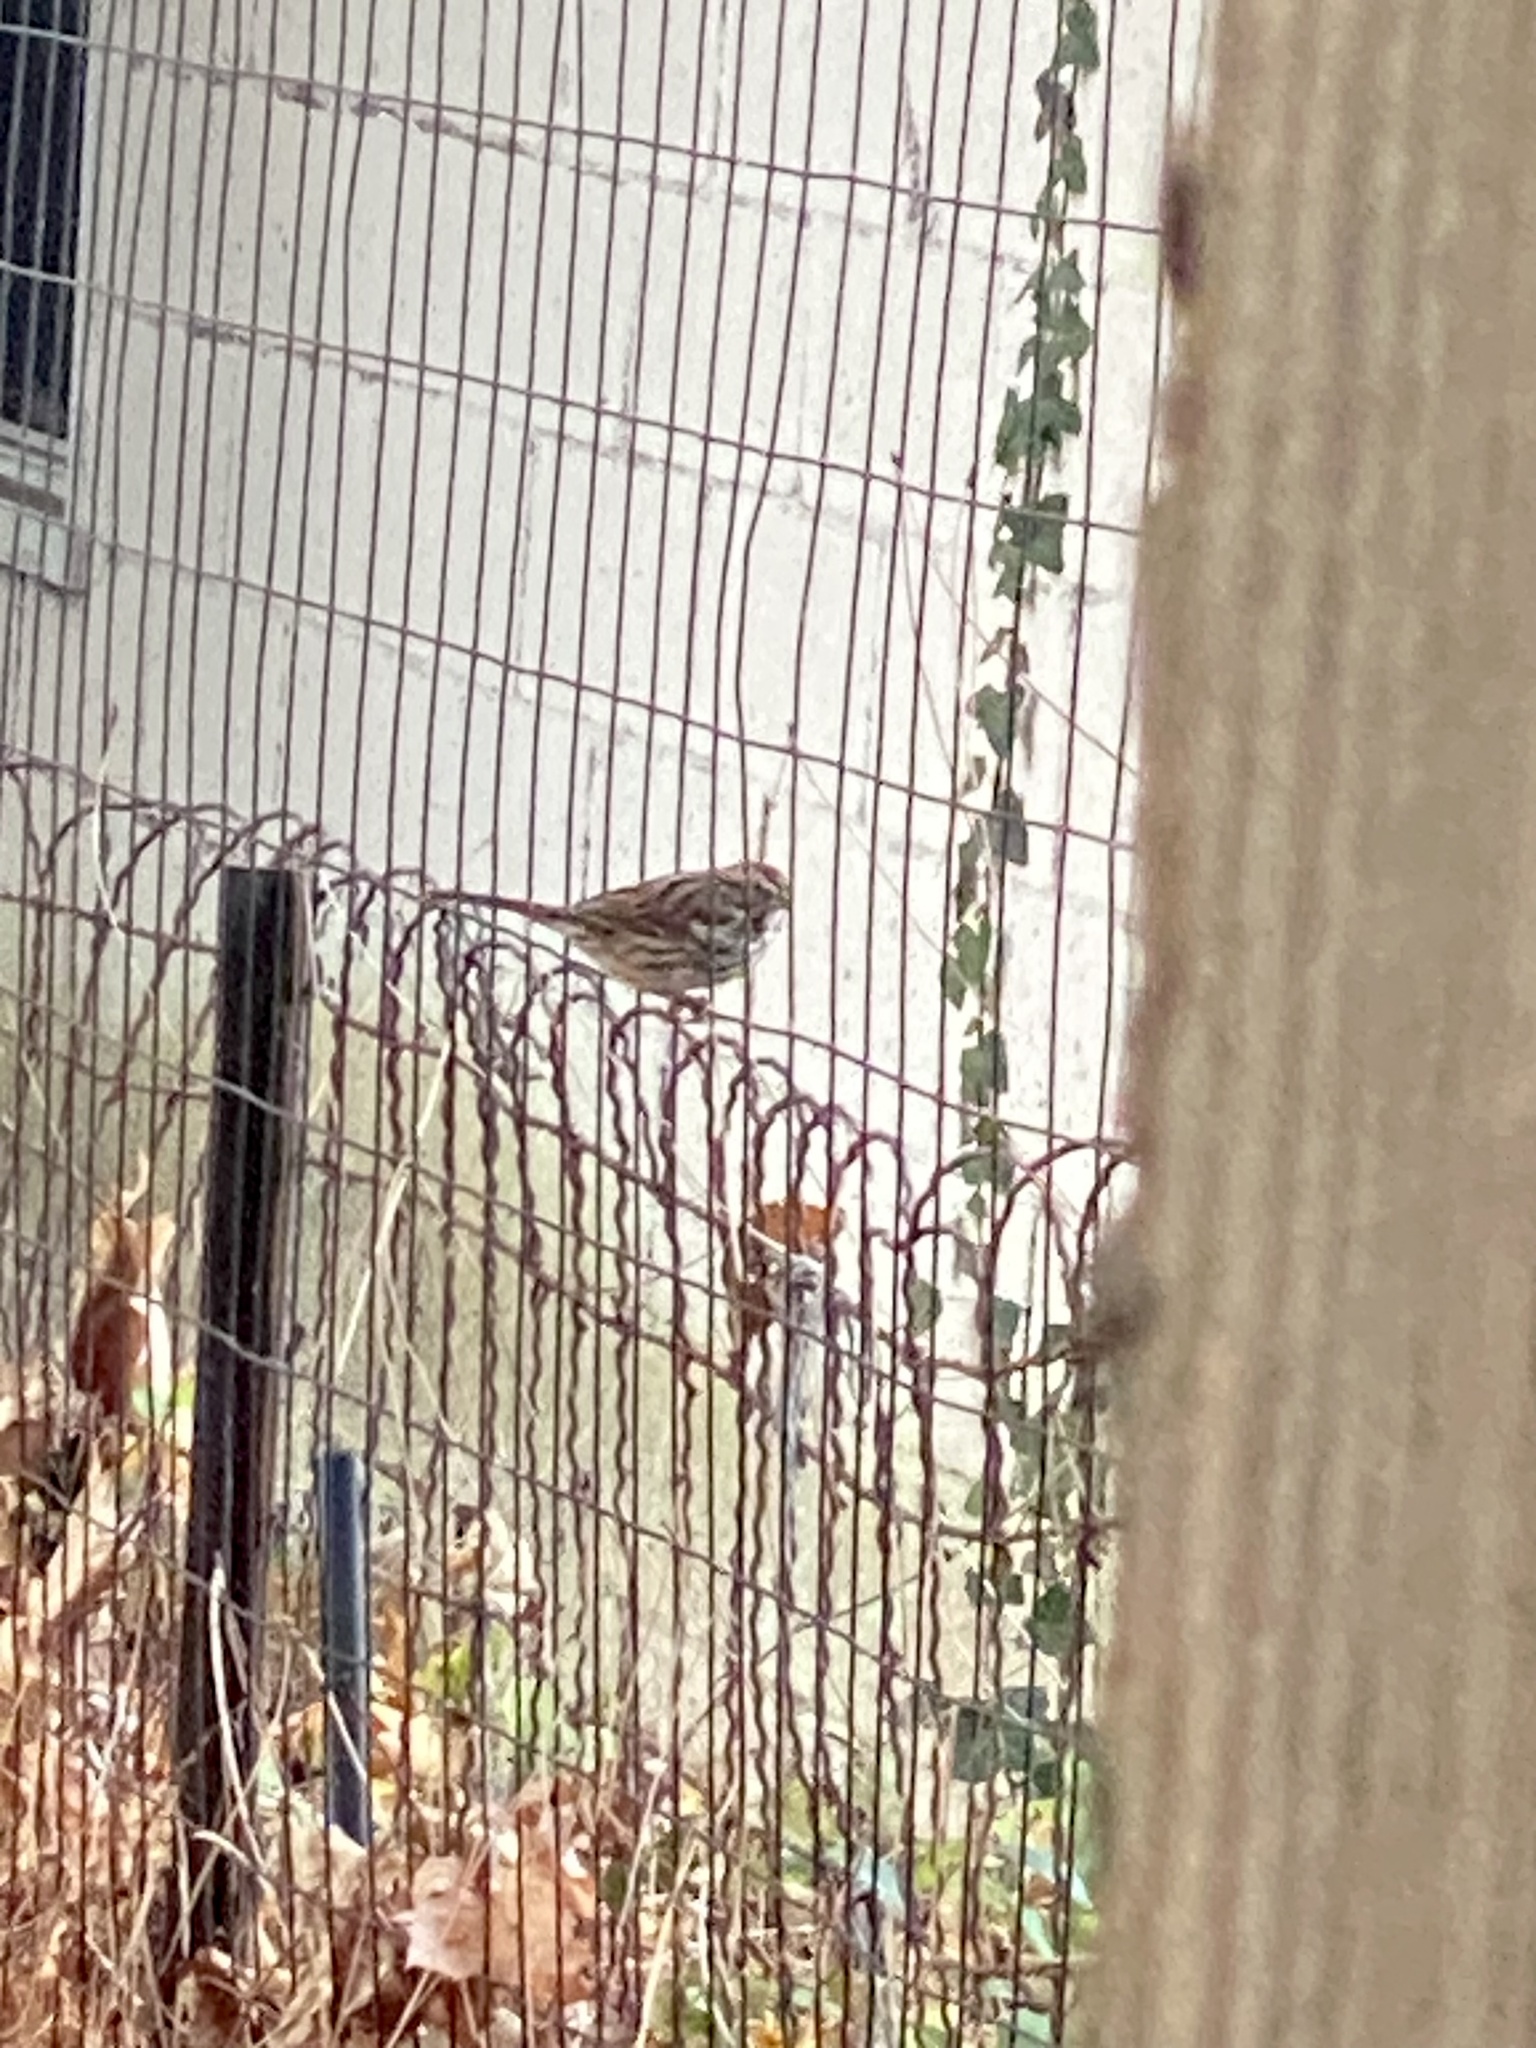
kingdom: Animalia
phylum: Chordata
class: Aves
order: Passeriformes
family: Passerellidae
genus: Melospiza
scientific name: Melospiza melodia
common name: Song sparrow
